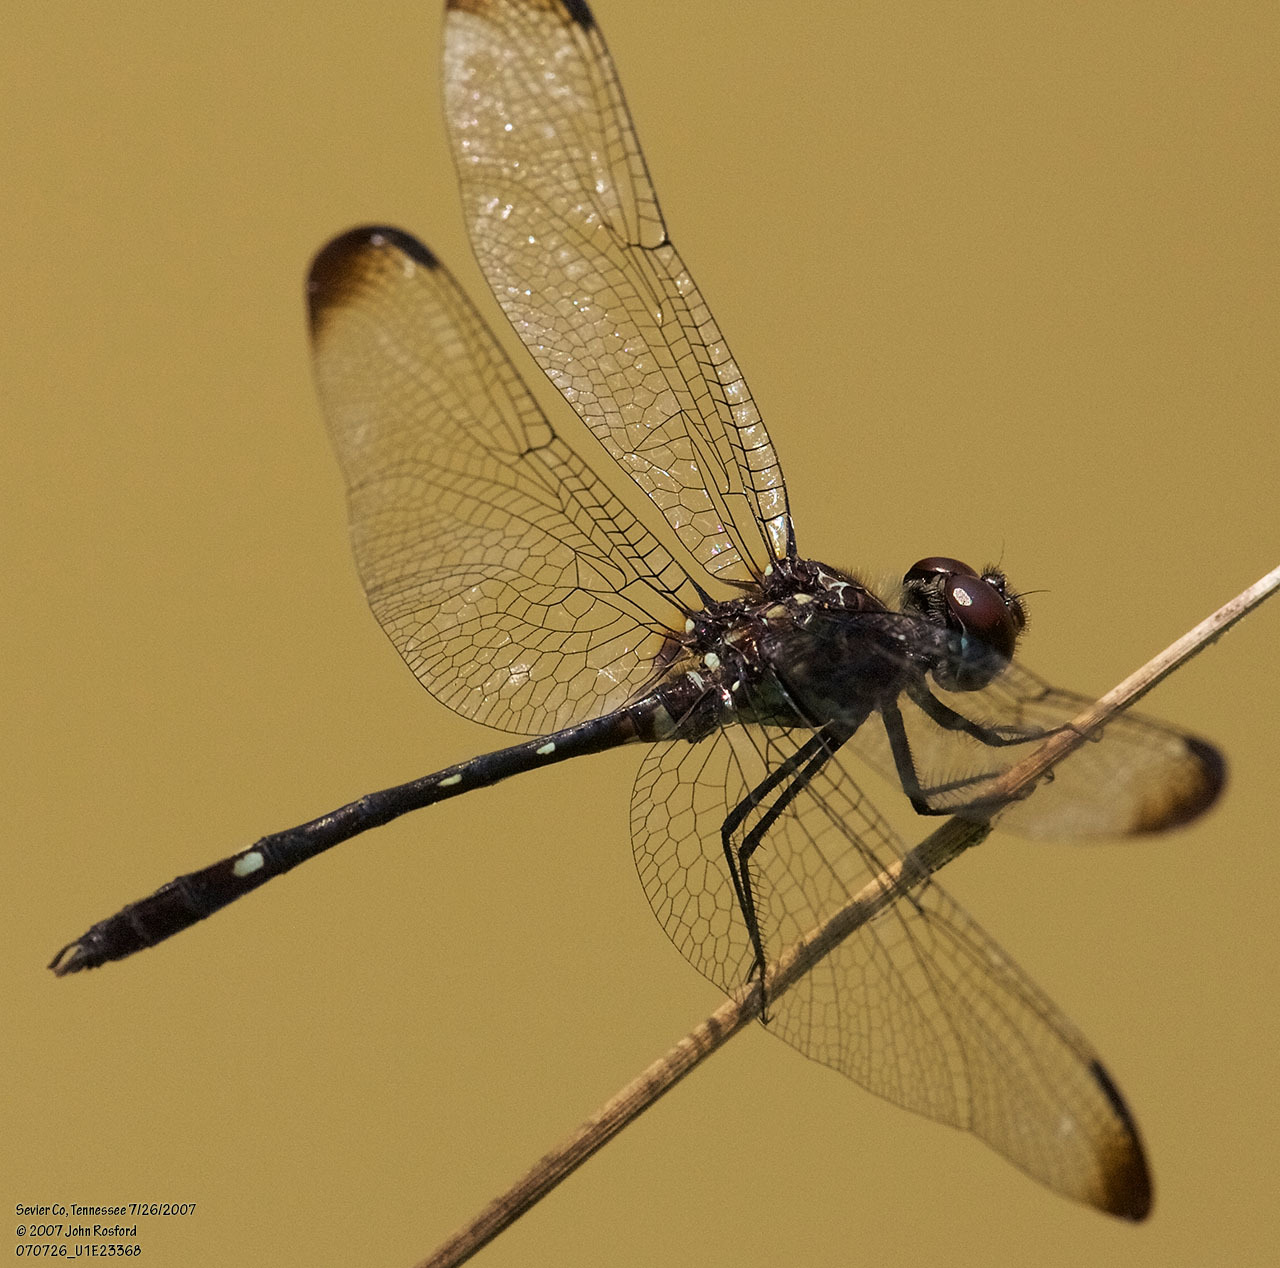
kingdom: Animalia
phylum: Arthropoda
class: Insecta
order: Odonata
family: Libellulidae
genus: Dythemis
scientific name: Dythemis velox
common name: Swift setwing
